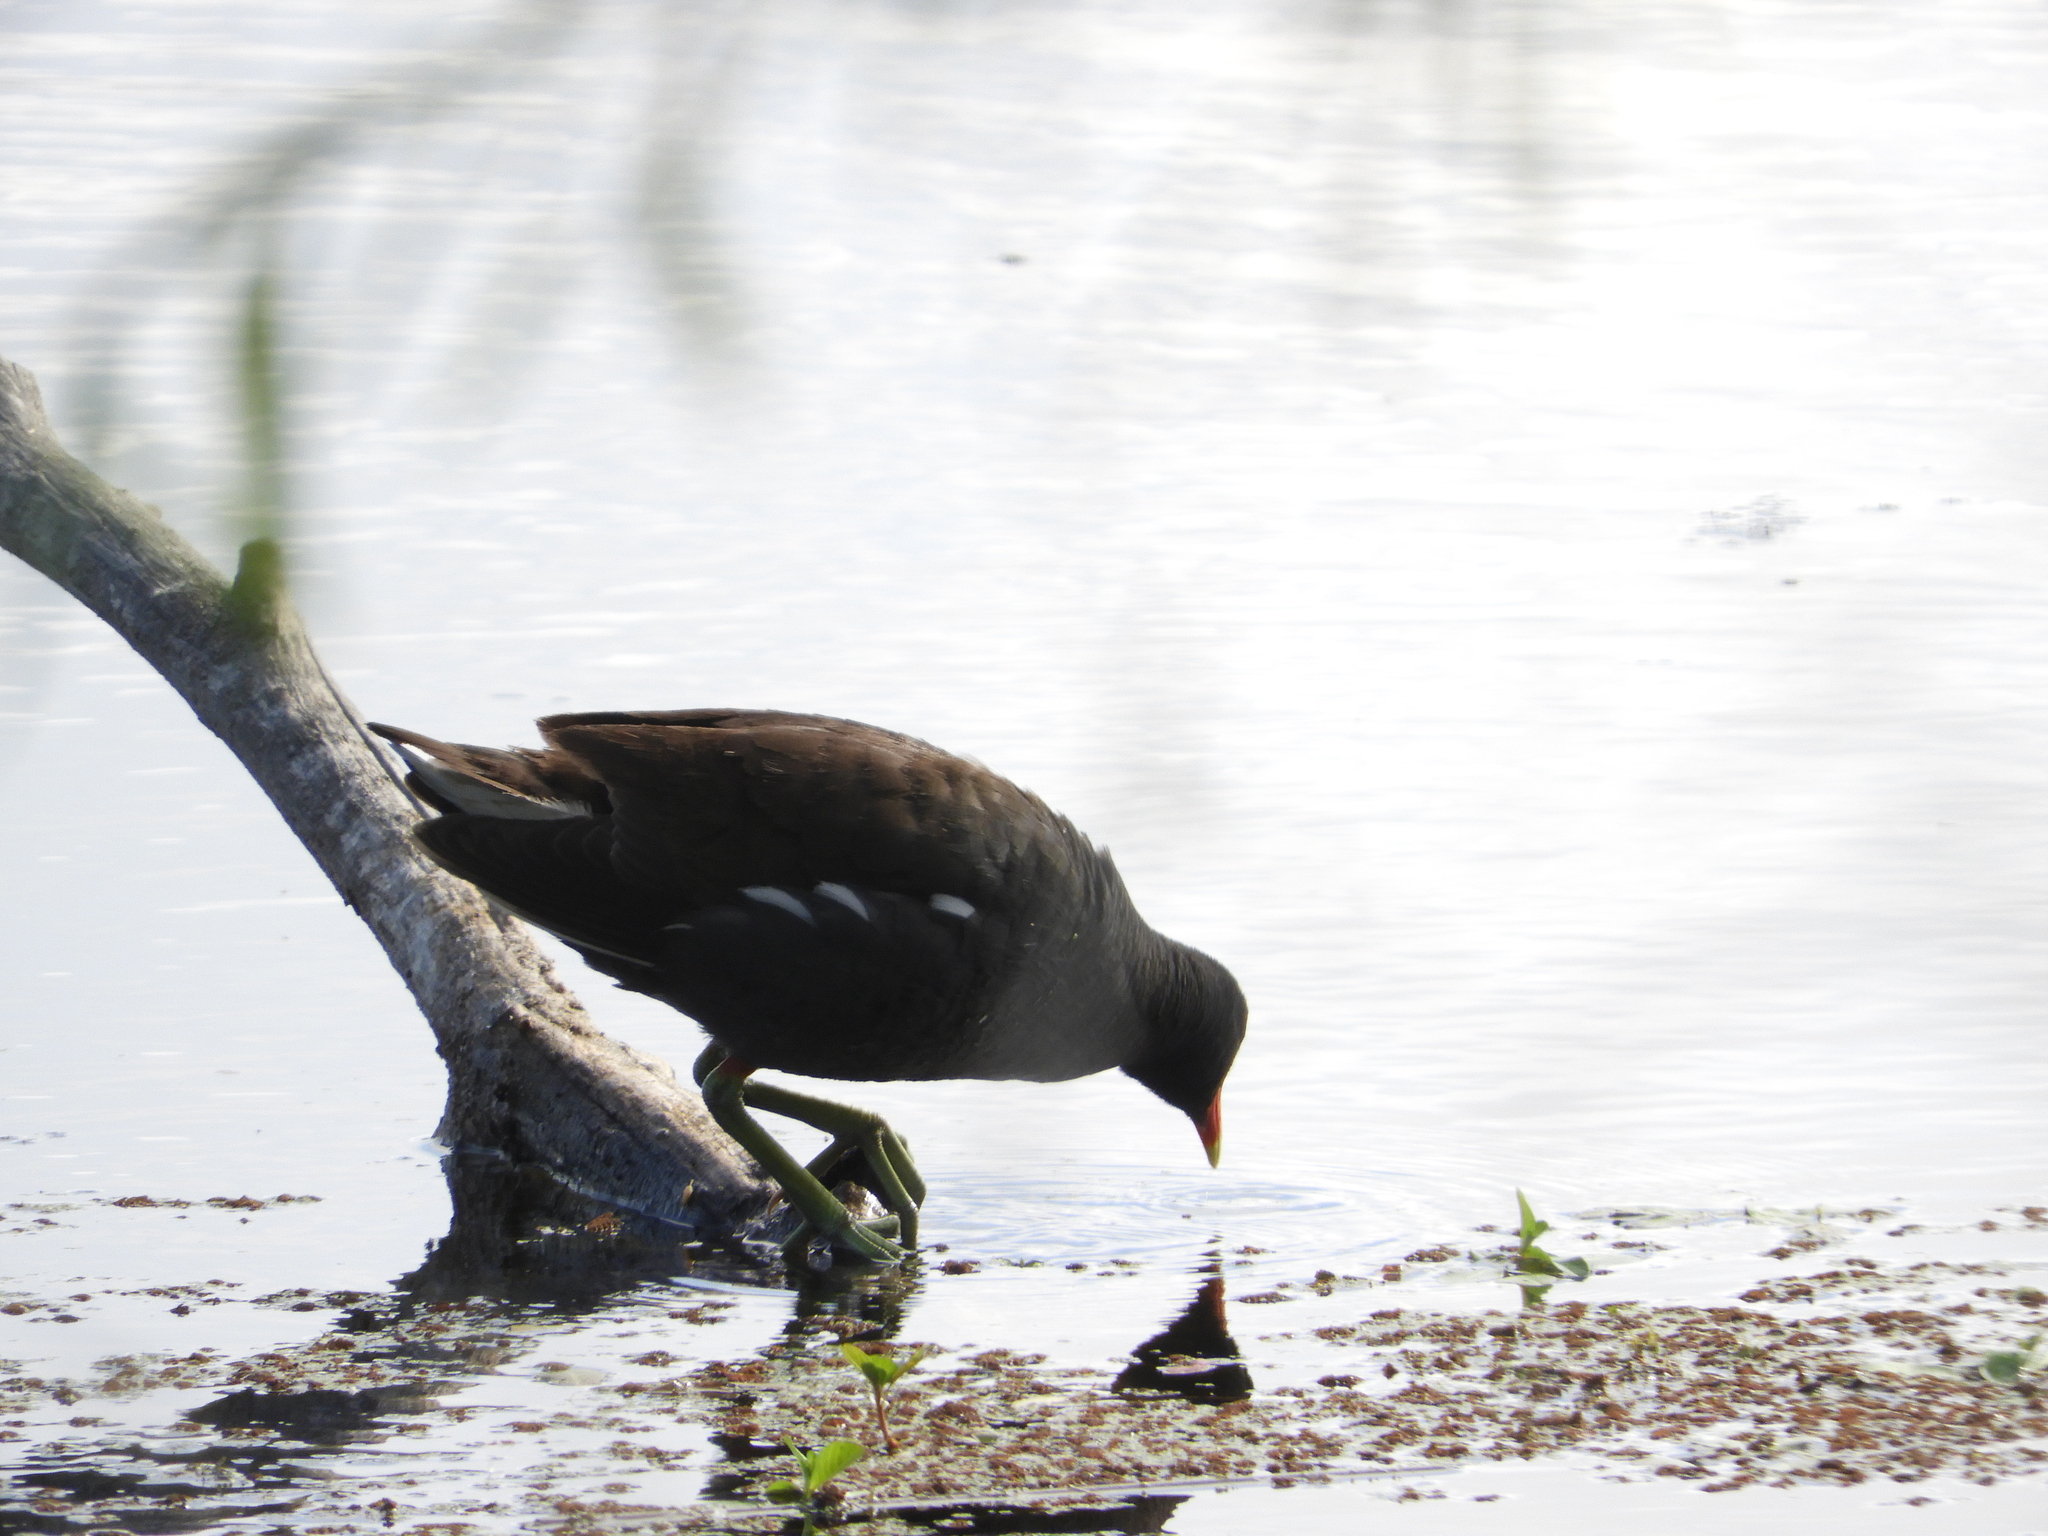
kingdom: Animalia
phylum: Chordata
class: Aves
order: Gruiformes
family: Rallidae
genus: Gallinula
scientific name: Gallinula chloropus
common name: Common moorhen
